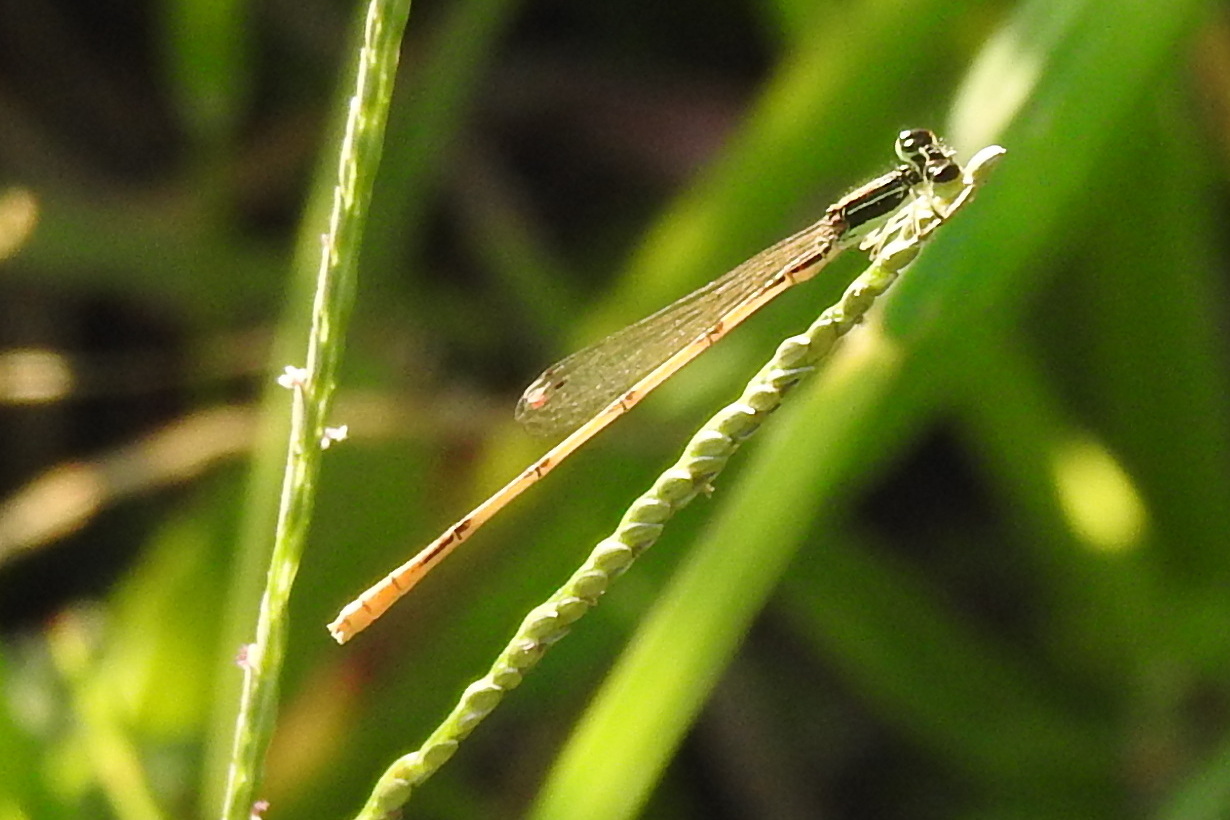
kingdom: Animalia
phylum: Arthropoda
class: Insecta
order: Odonata
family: Coenagrionidae
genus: Ischnura
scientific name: Ischnura hastata
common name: Citrine forktail
